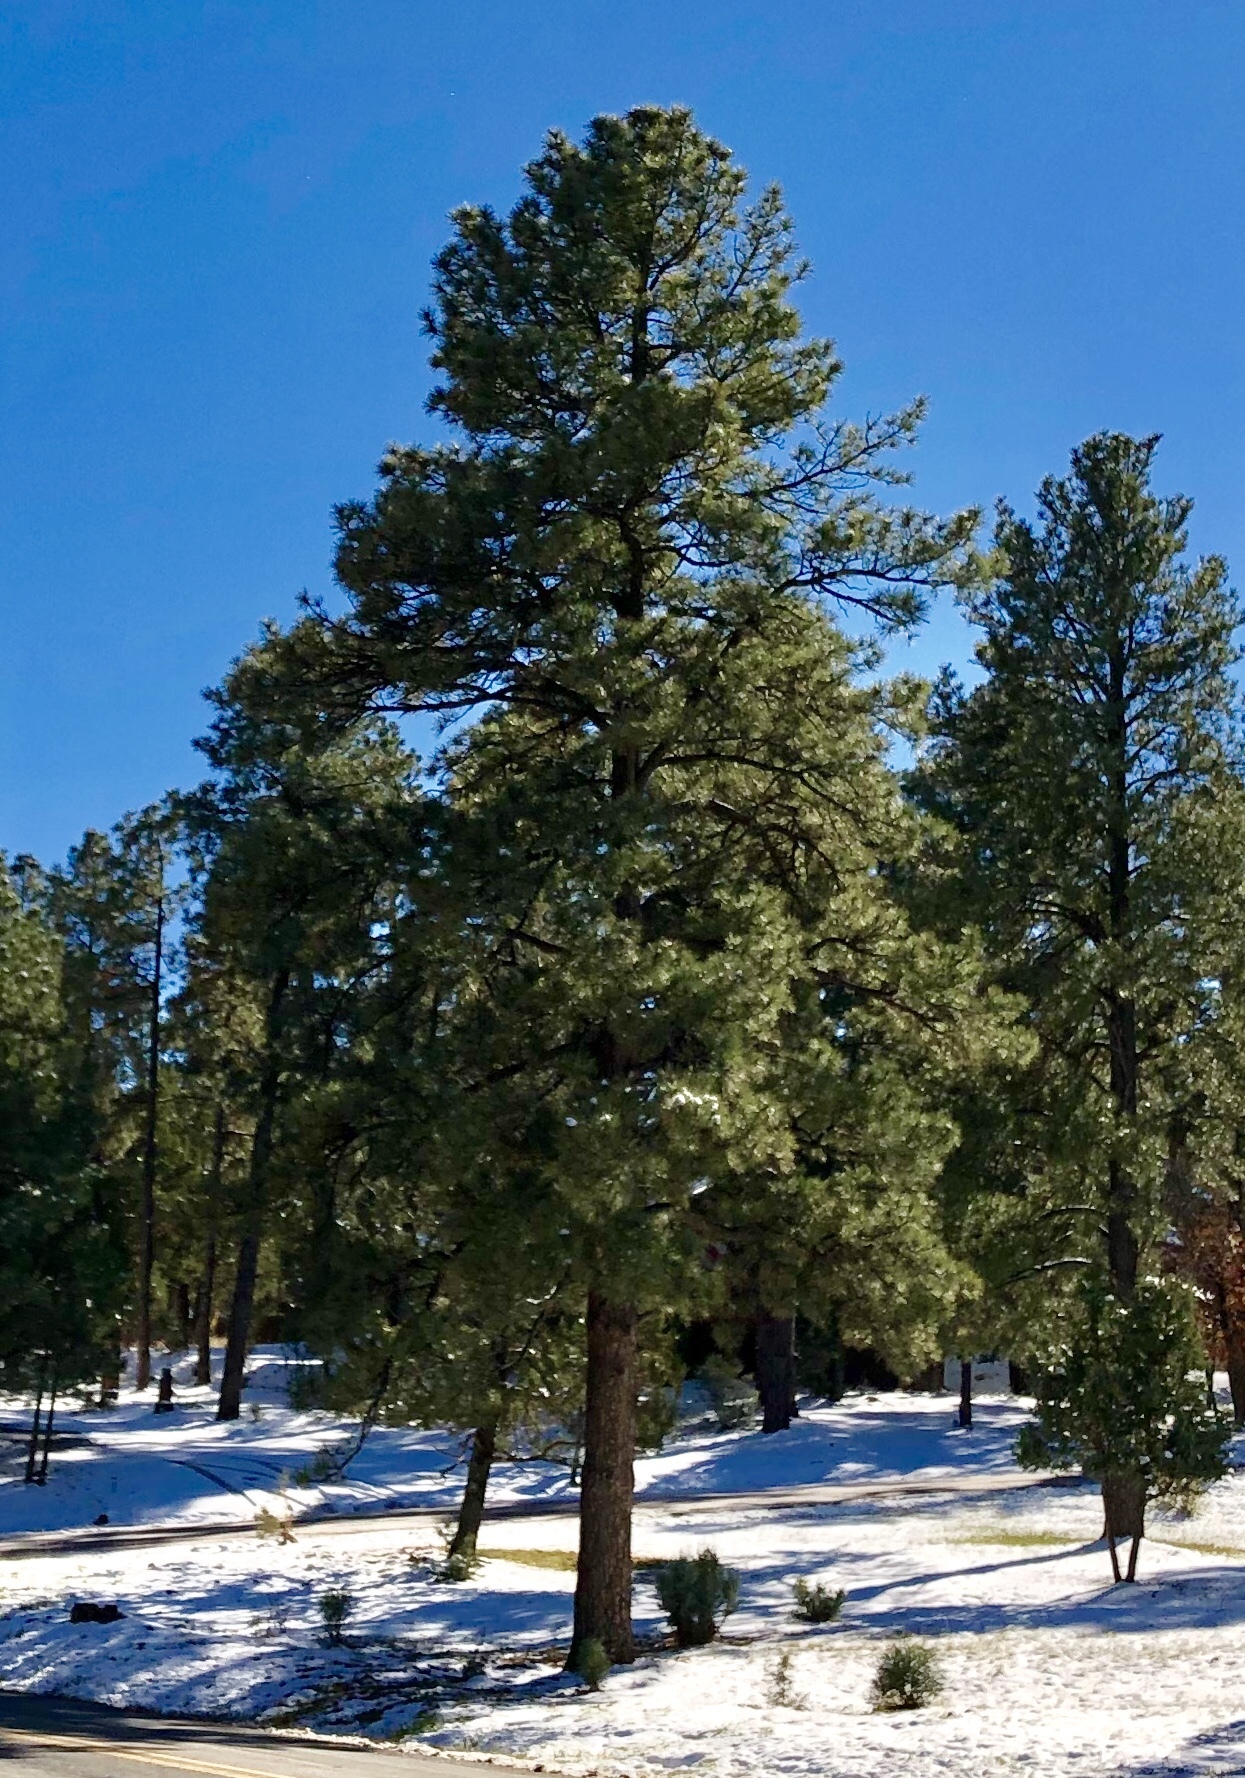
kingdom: Plantae
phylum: Tracheophyta
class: Pinopsida
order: Pinales
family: Pinaceae
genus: Pinus
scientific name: Pinus ponderosa
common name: Western yellow-pine
